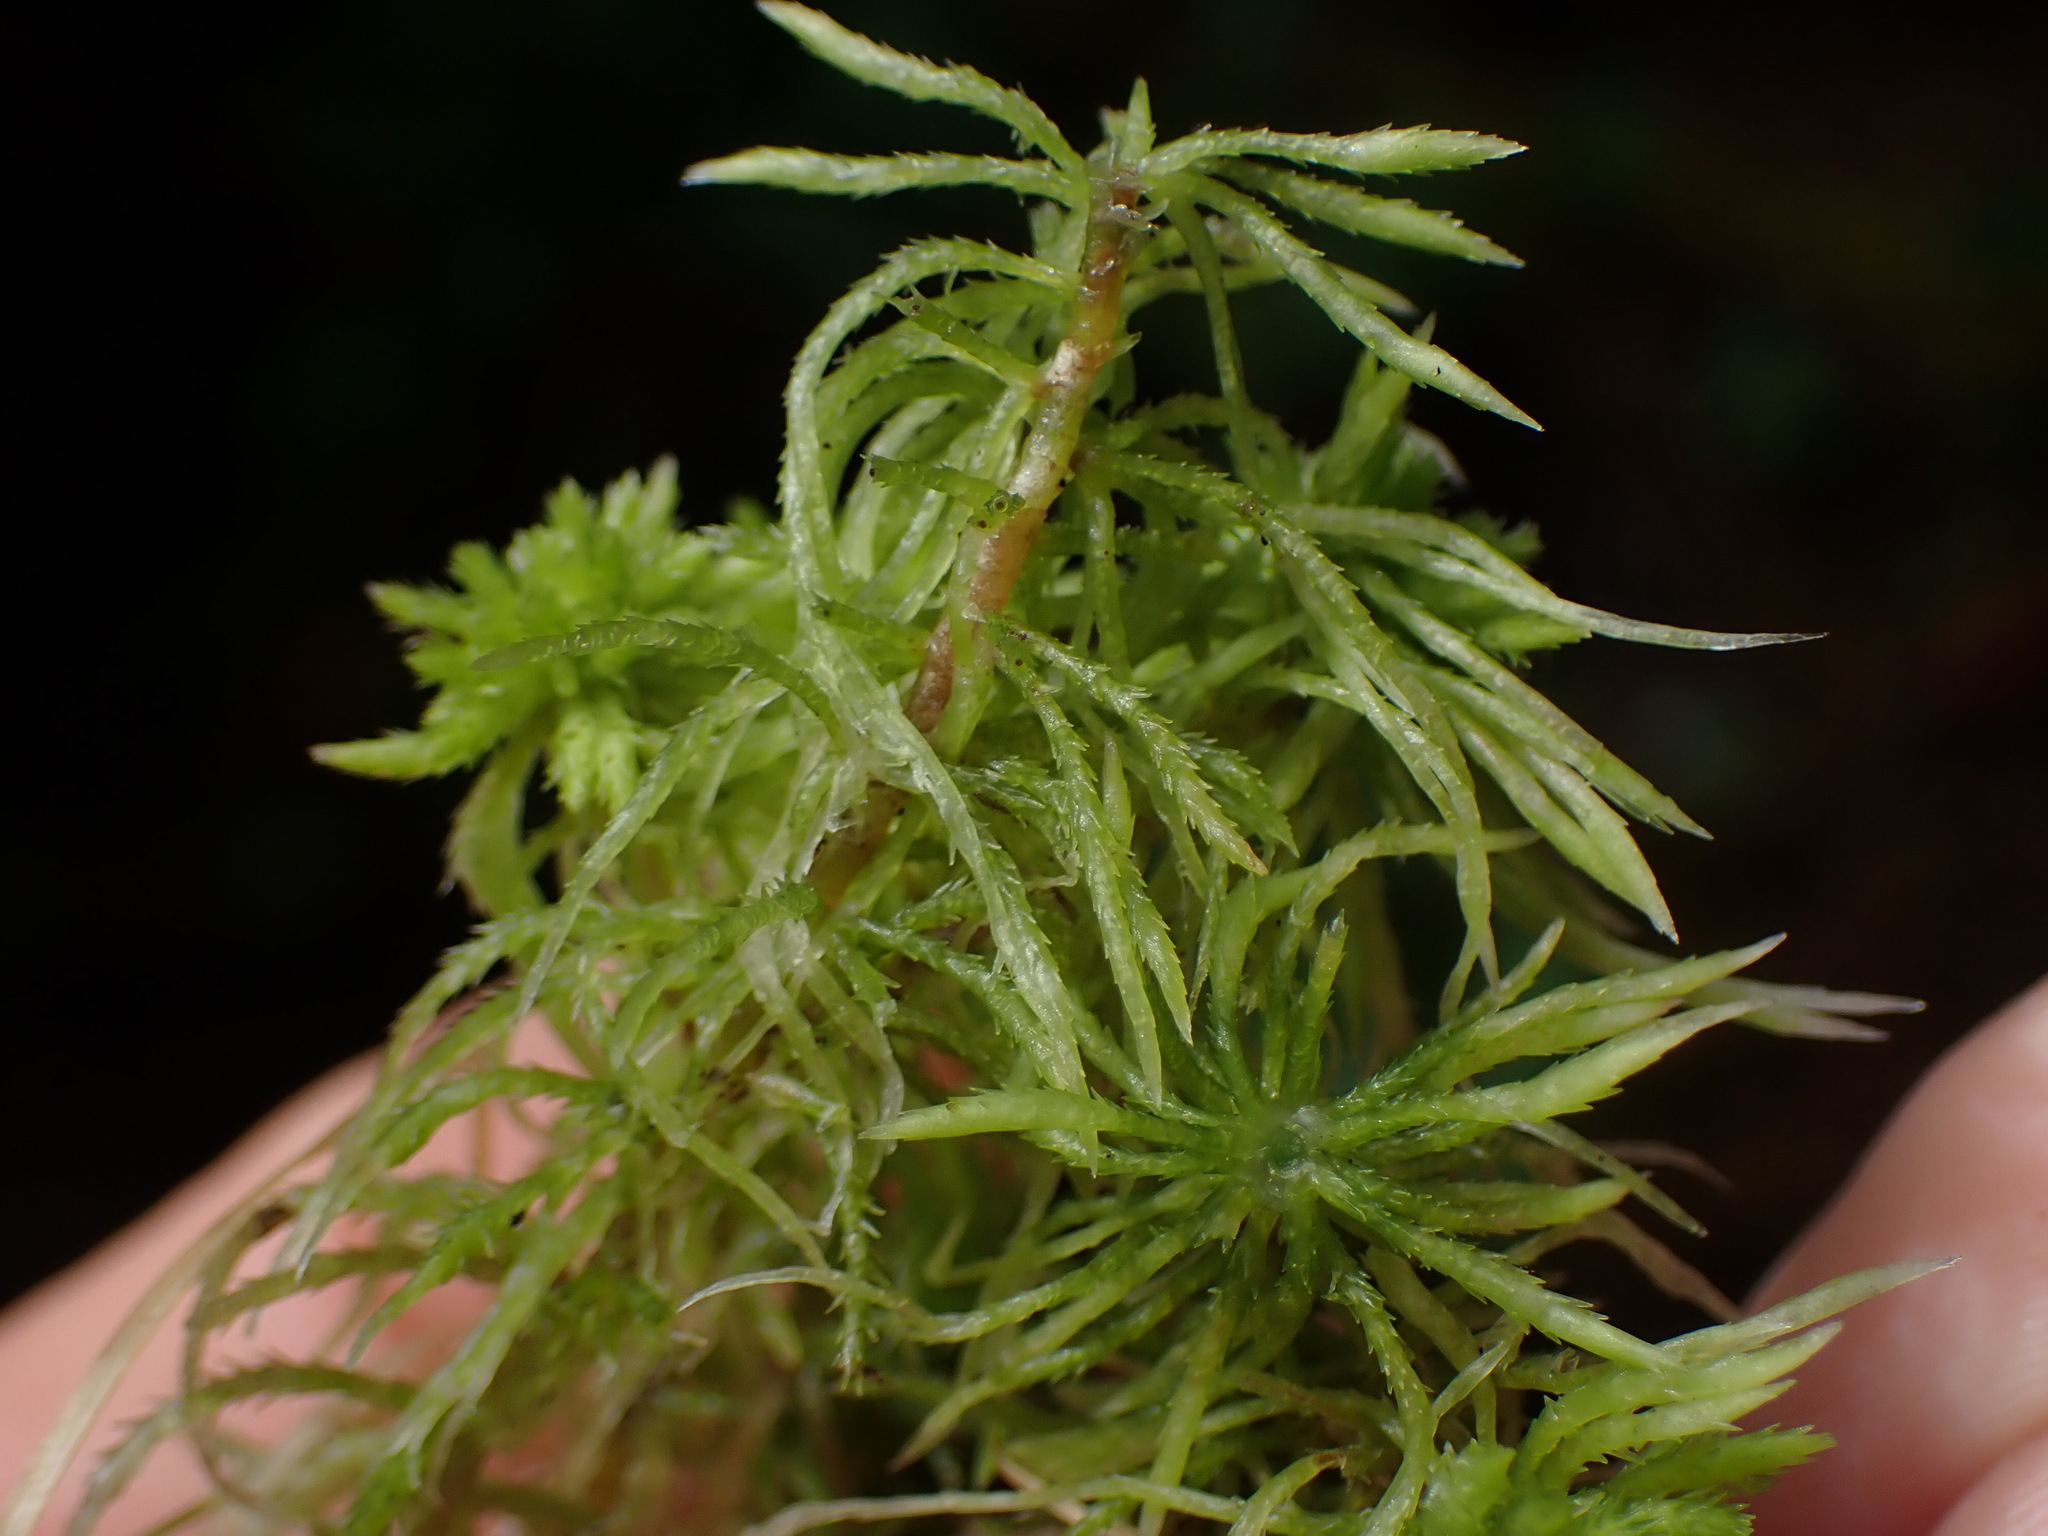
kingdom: Plantae
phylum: Bryophyta
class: Sphagnopsida
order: Sphagnales
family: Sphagnaceae
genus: Sphagnum
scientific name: Sphagnum fimbriatum
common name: Fringed peat moss
